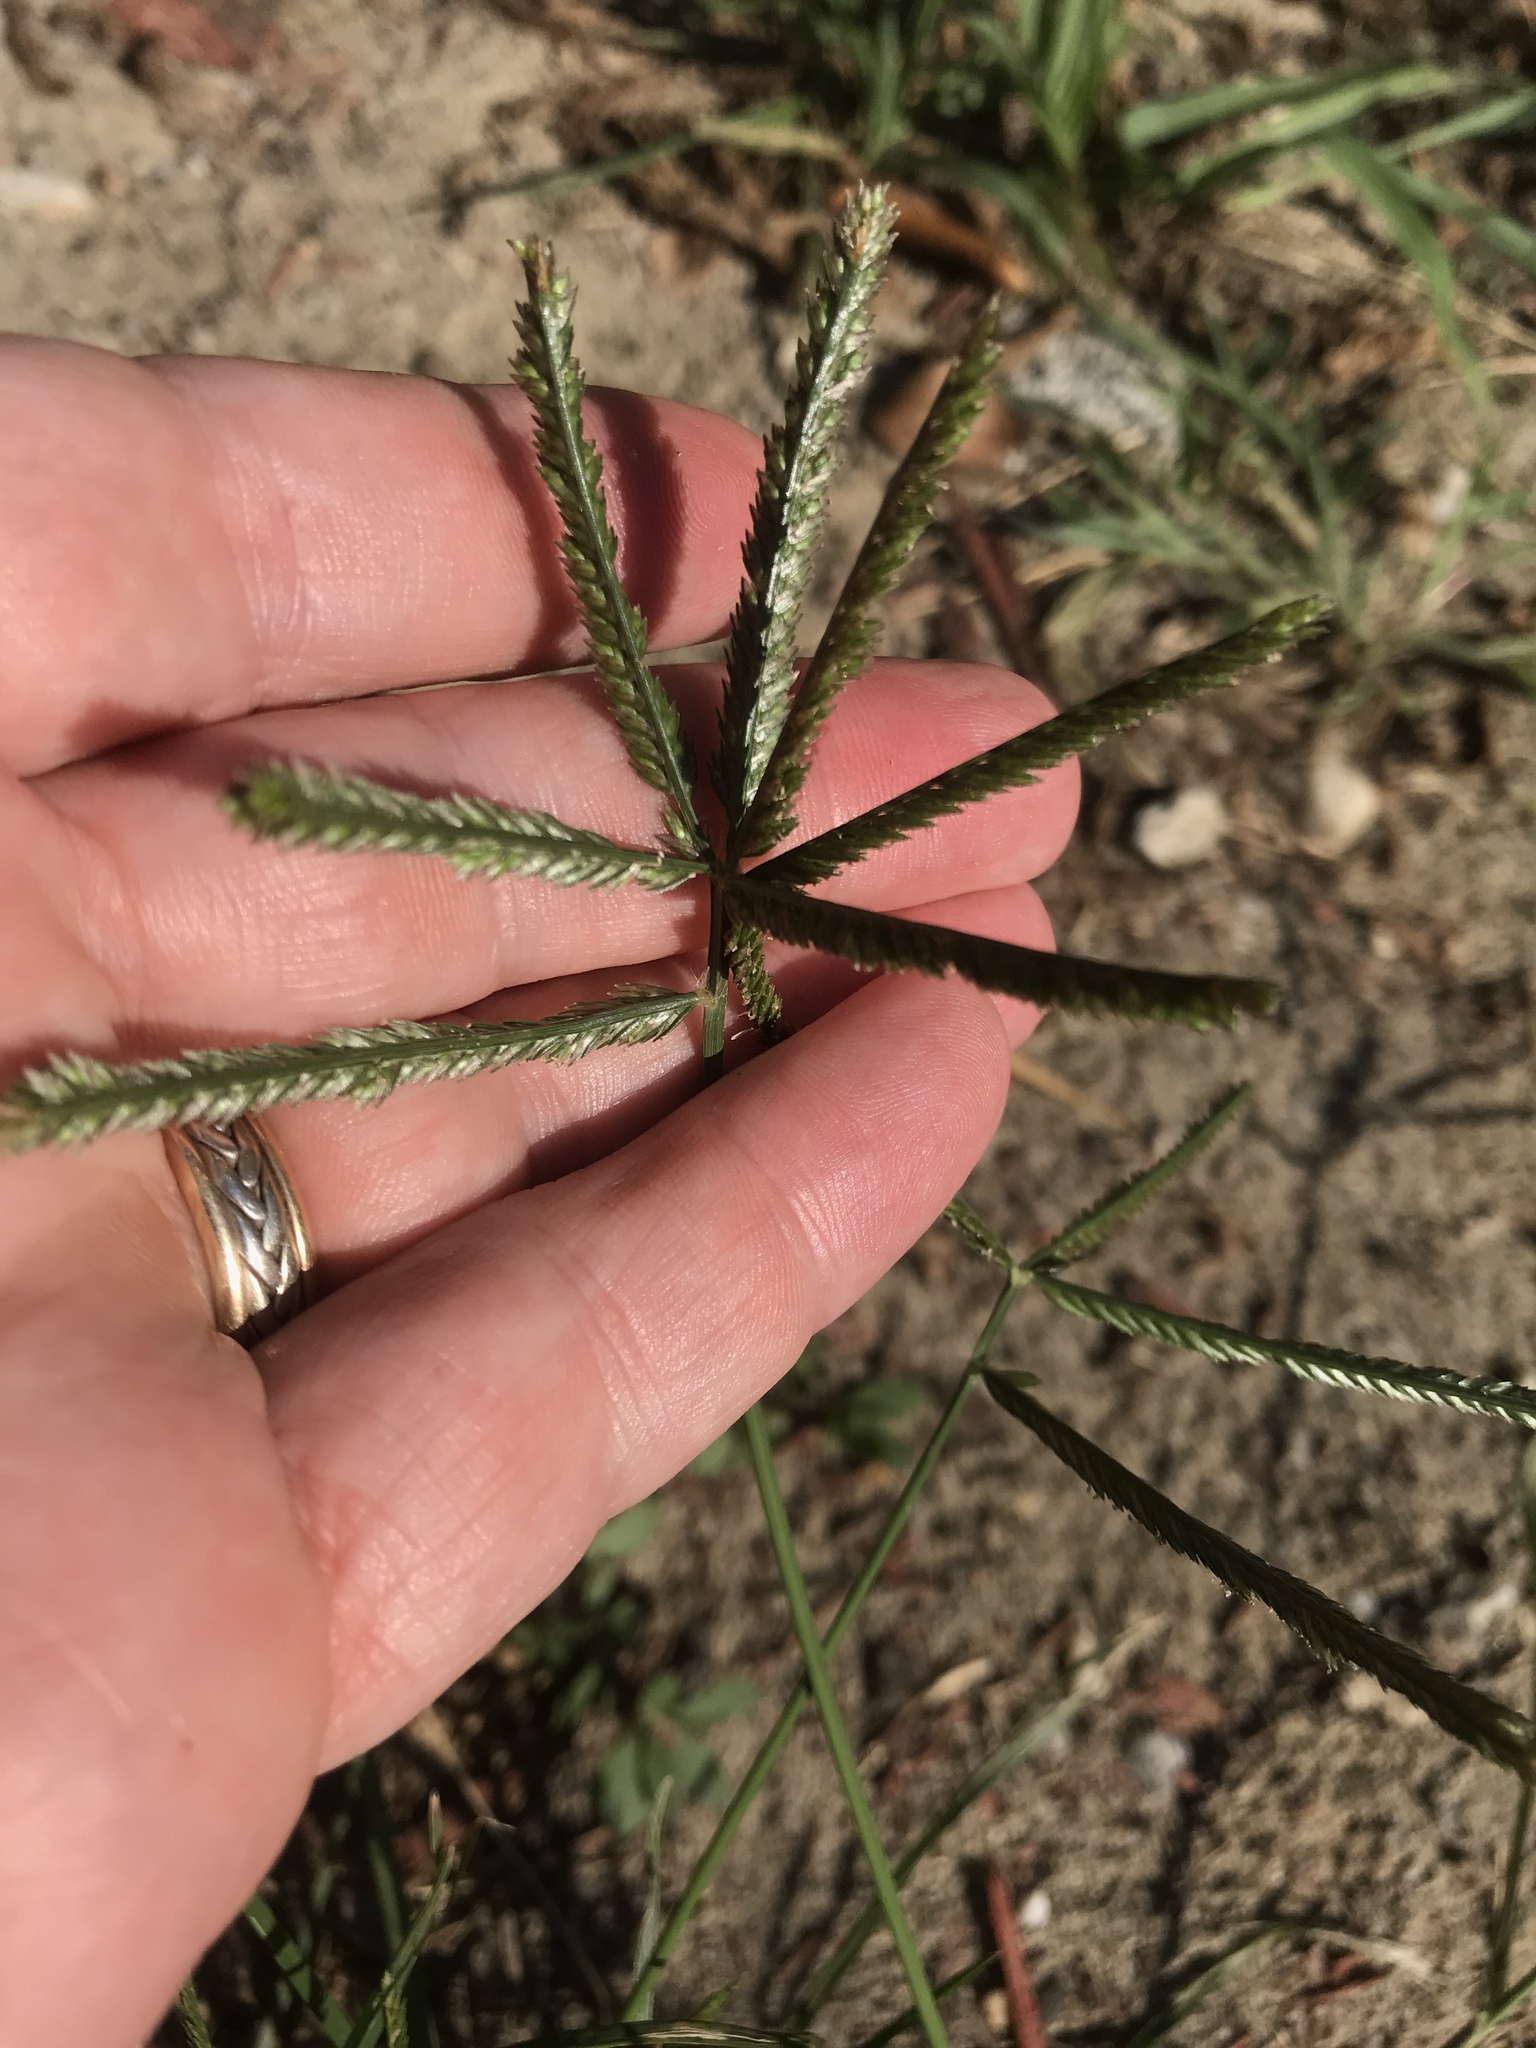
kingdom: Plantae
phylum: Tracheophyta
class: Liliopsida
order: Poales
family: Poaceae
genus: Eleusine
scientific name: Eleusine indica
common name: Yard-grass
